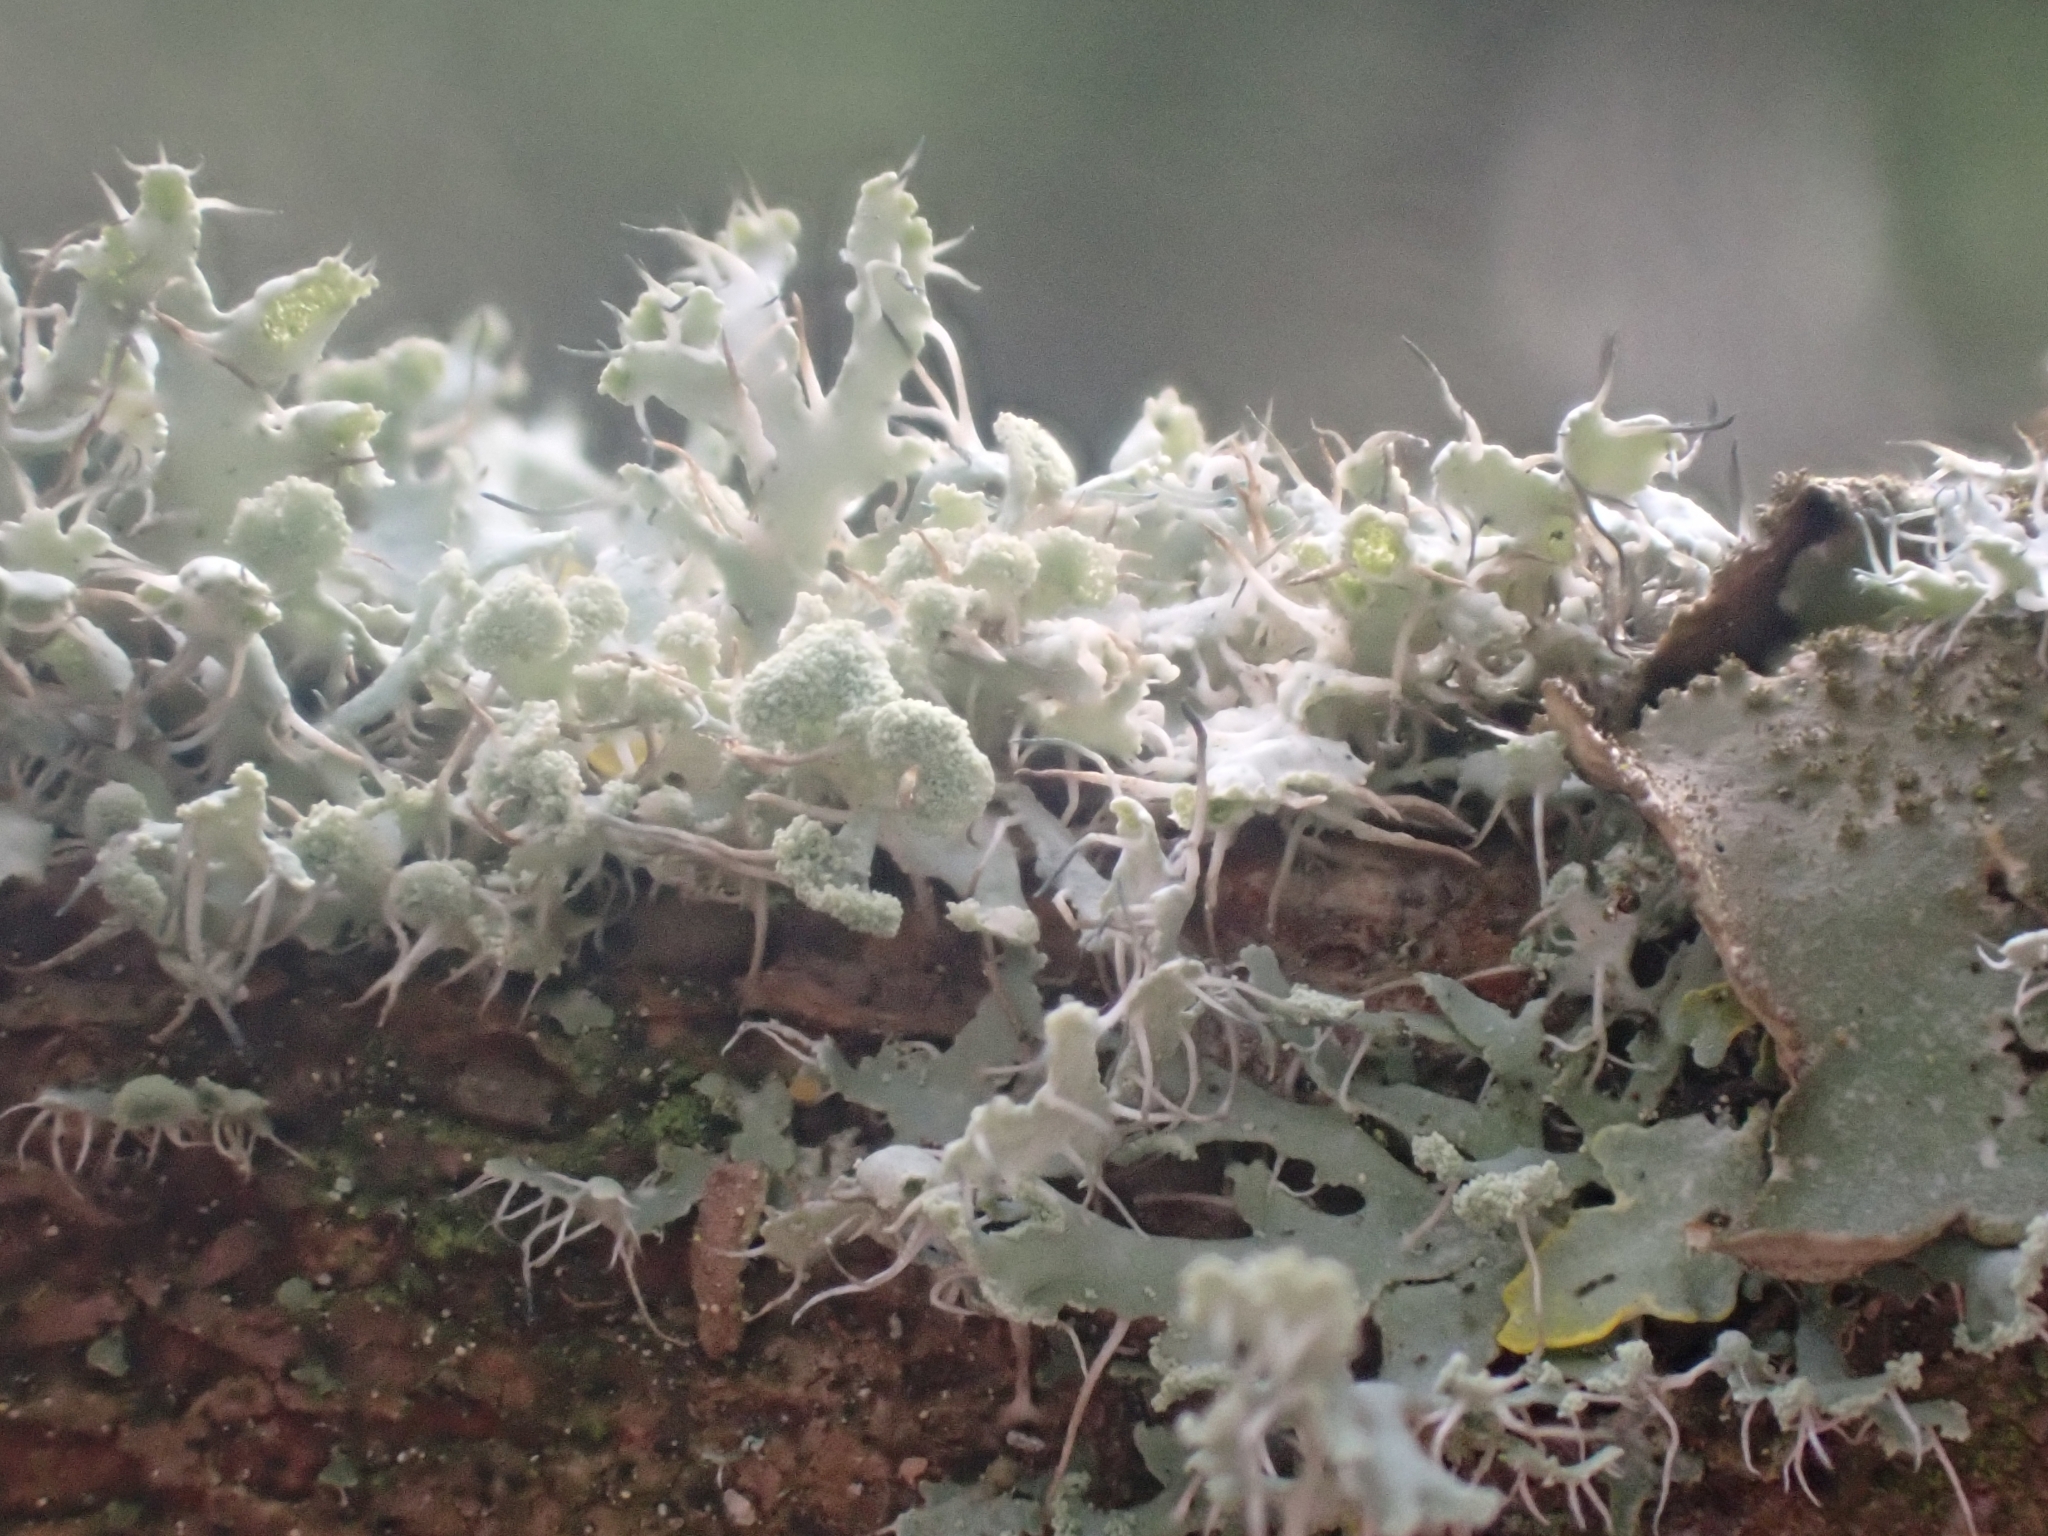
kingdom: Fungi
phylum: Ascomycota
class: Lecanoromycetes
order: Caliciales
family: Physciaceae
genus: Physcia
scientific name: Physcia adscendens
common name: Hooded rosette lichen
